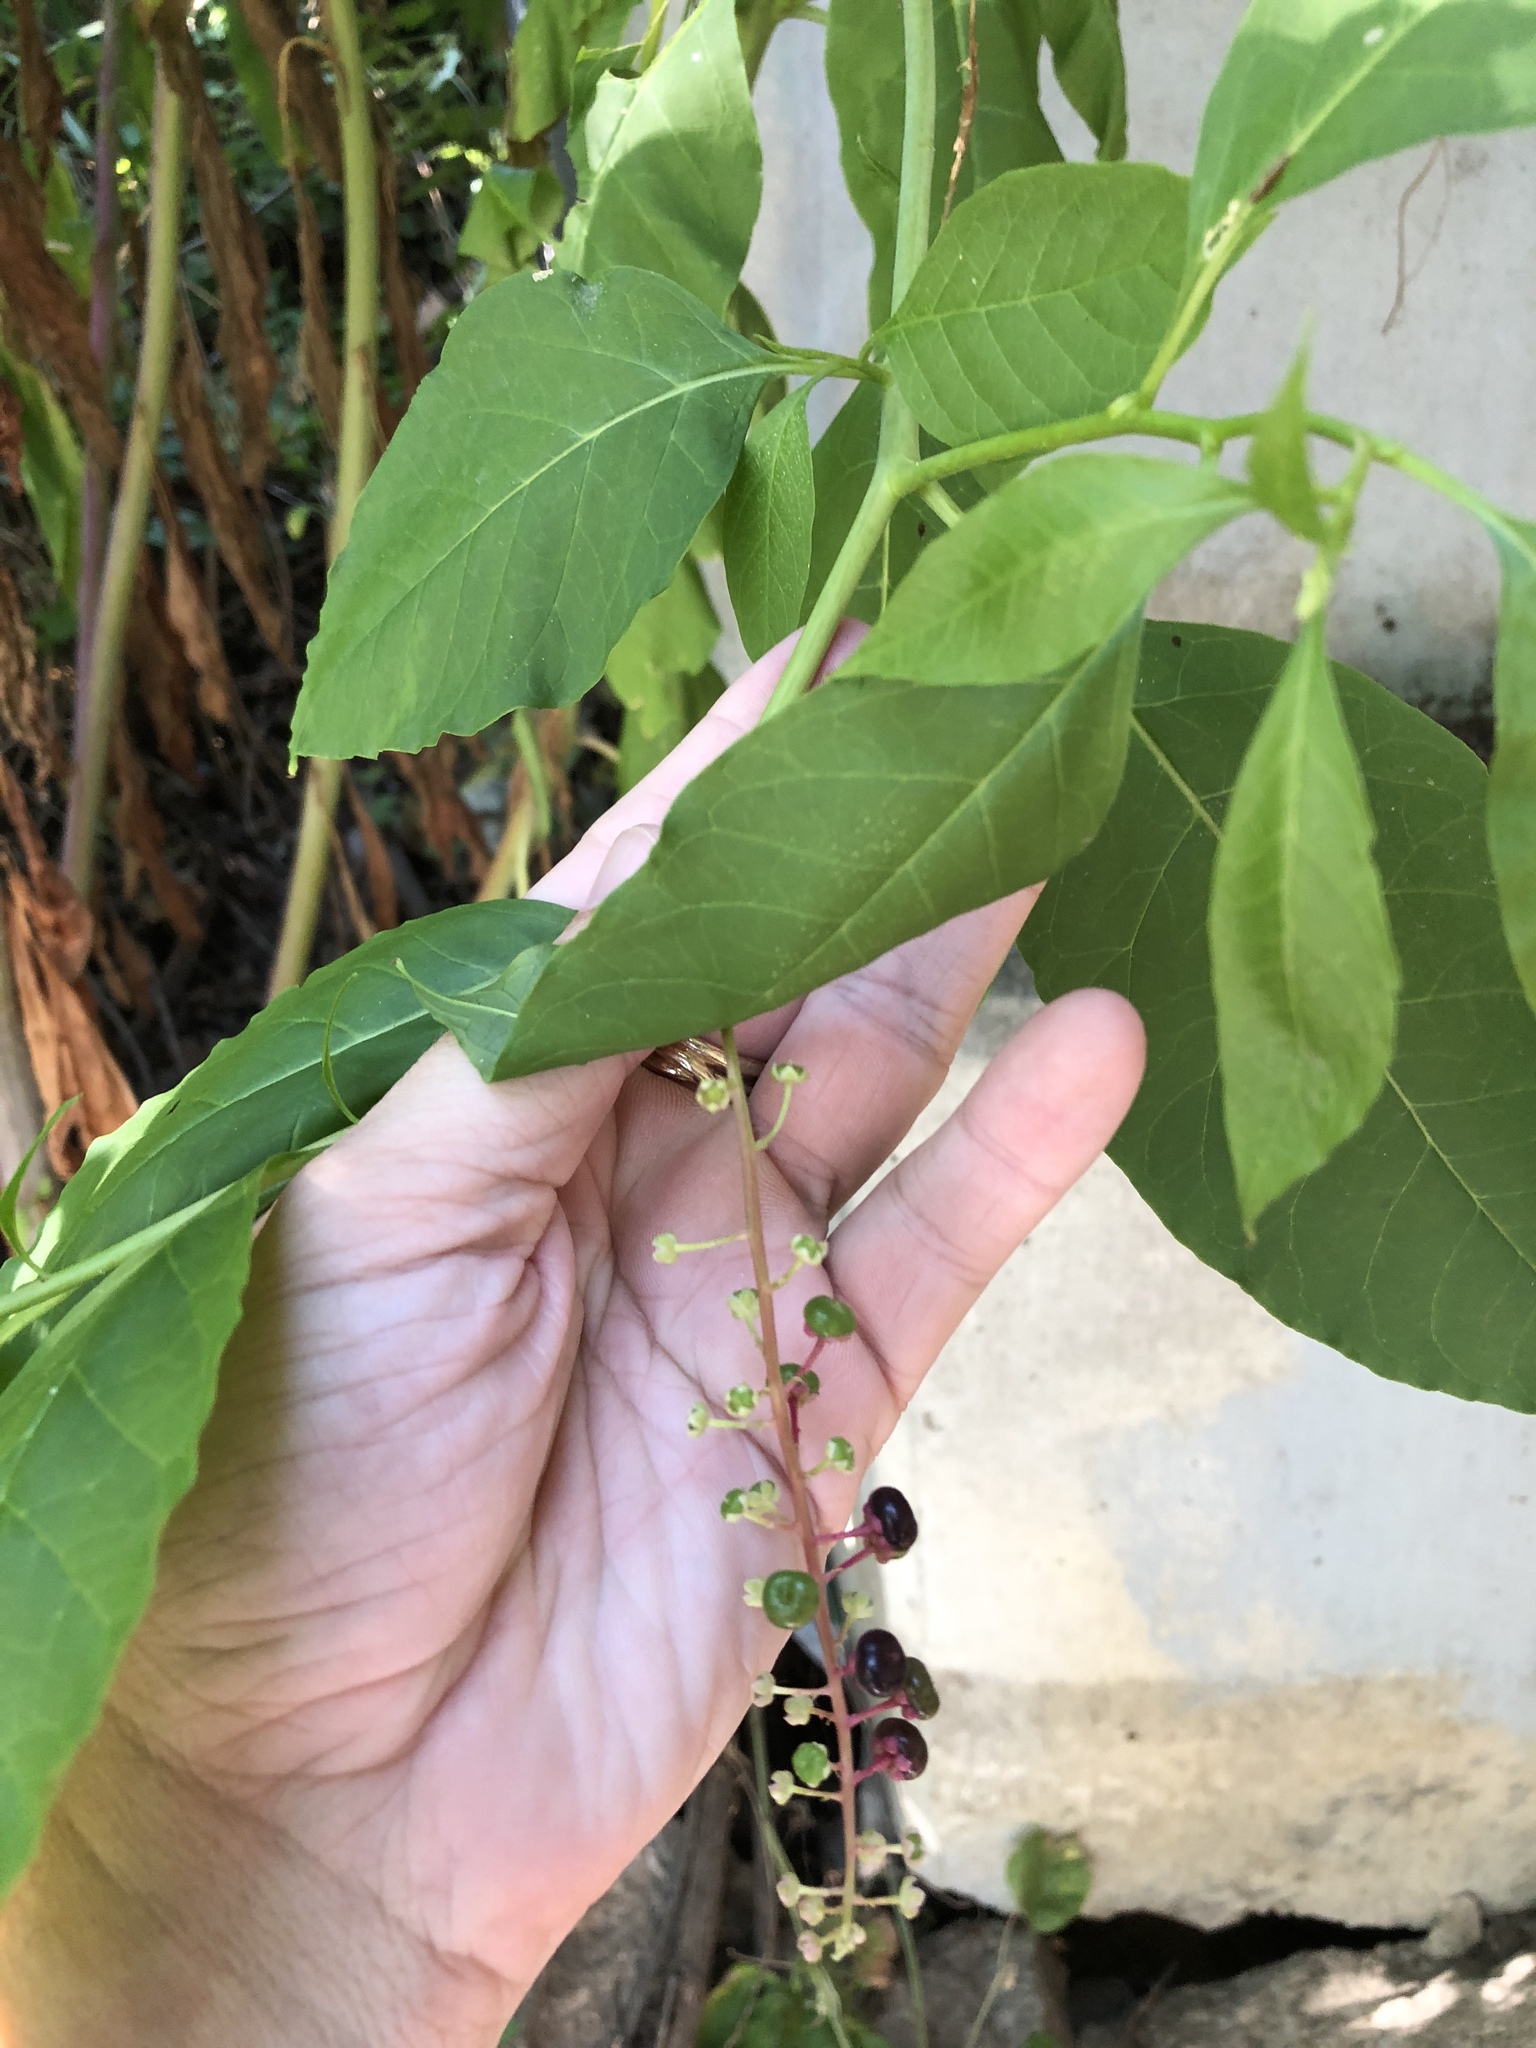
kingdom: Plantae
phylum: Tracheophyta
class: Magnoliopsida
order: Caryophyllales
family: Phytolaccaceae
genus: Phytolacca
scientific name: Phytolacca americana
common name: American pokeweed
